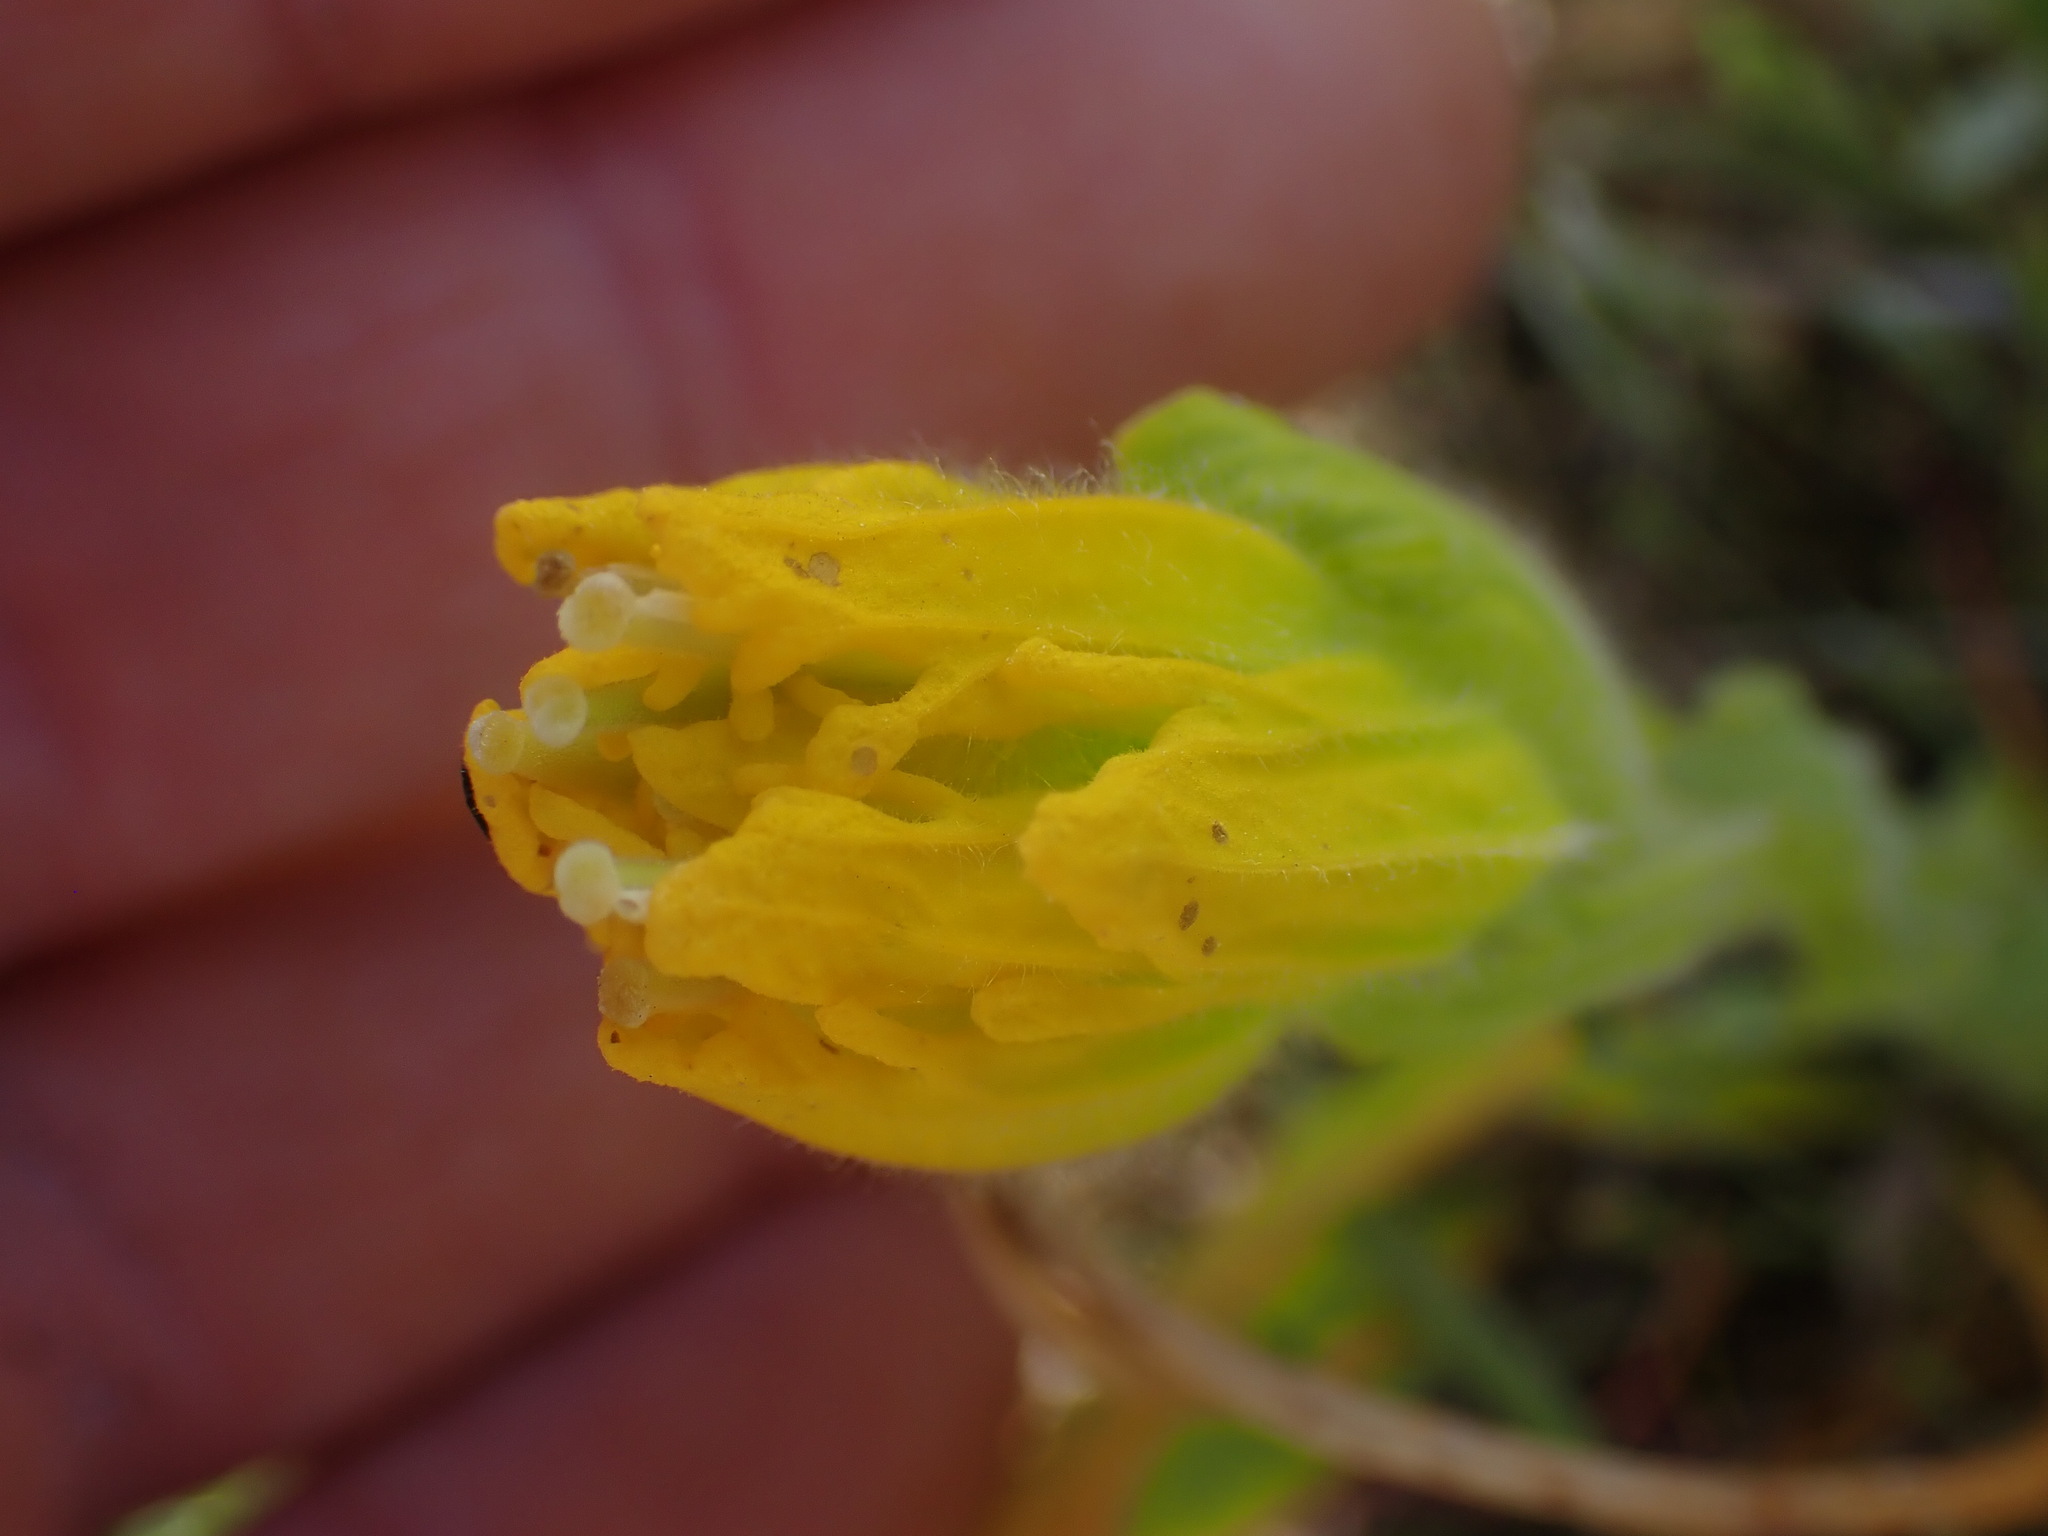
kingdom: Plantae
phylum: Tracheophyta
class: Magnoliopsida
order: Lamiales
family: Orobanchaceae
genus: Castilleja
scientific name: Castilleja levisecta
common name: Golden paintbrush
